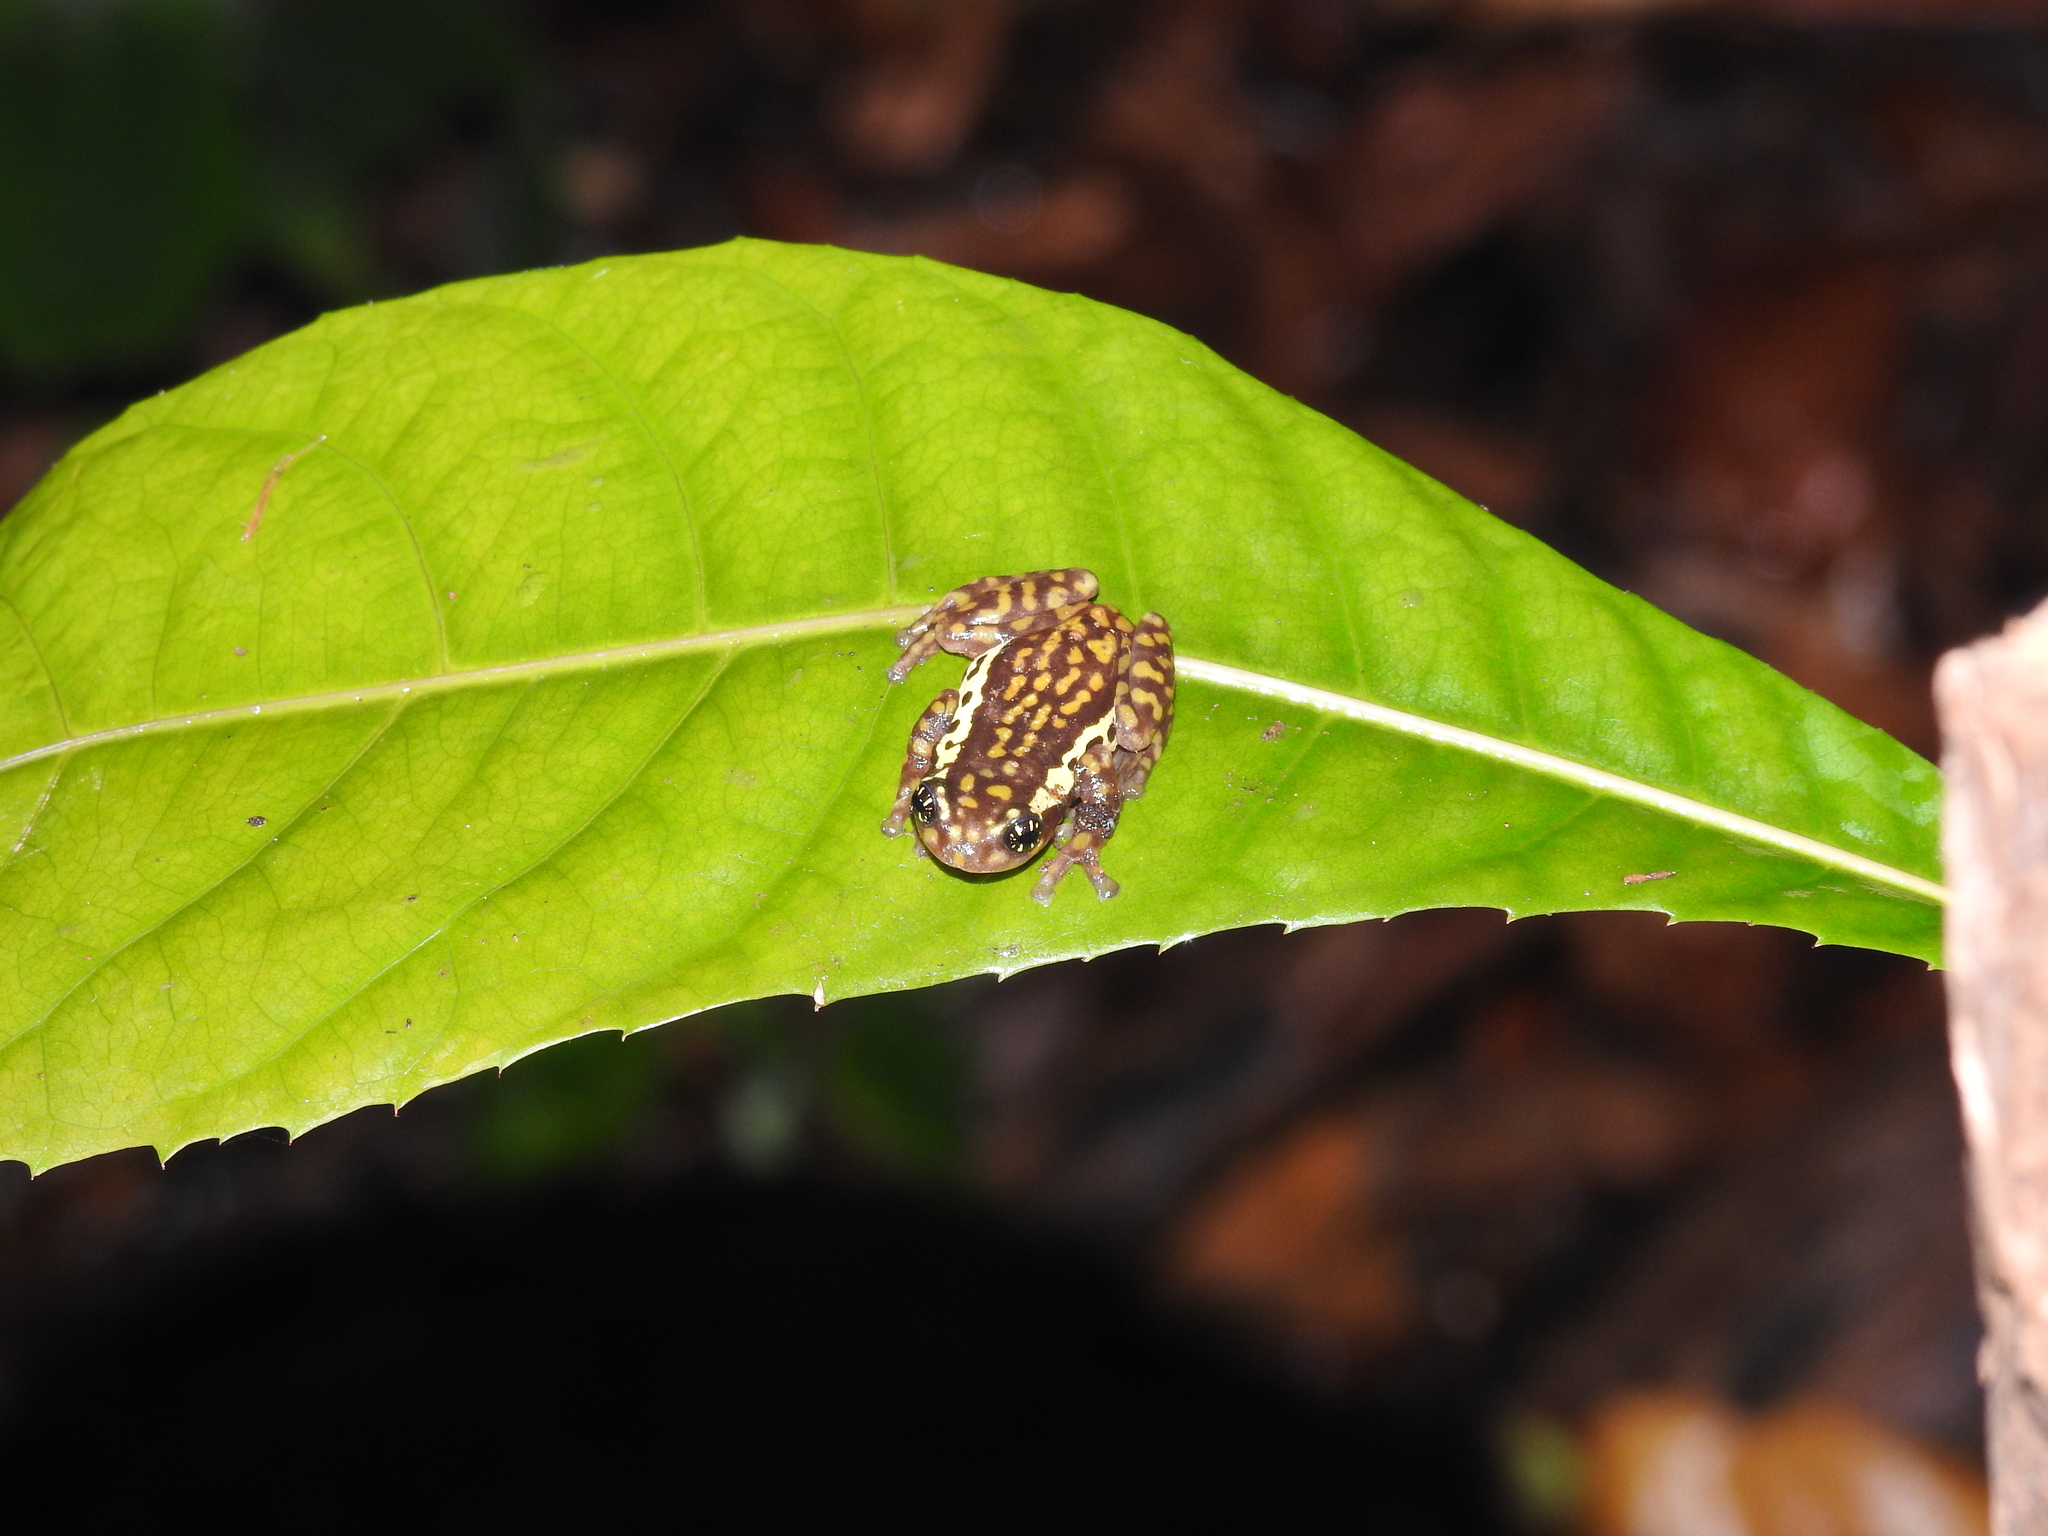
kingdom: Animalia
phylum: Chordata
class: Amphibia
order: Anura
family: Rhacophoridae
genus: Raorchestes
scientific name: Raorchestes ochlandrae
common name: Ochlandrae reed frog
